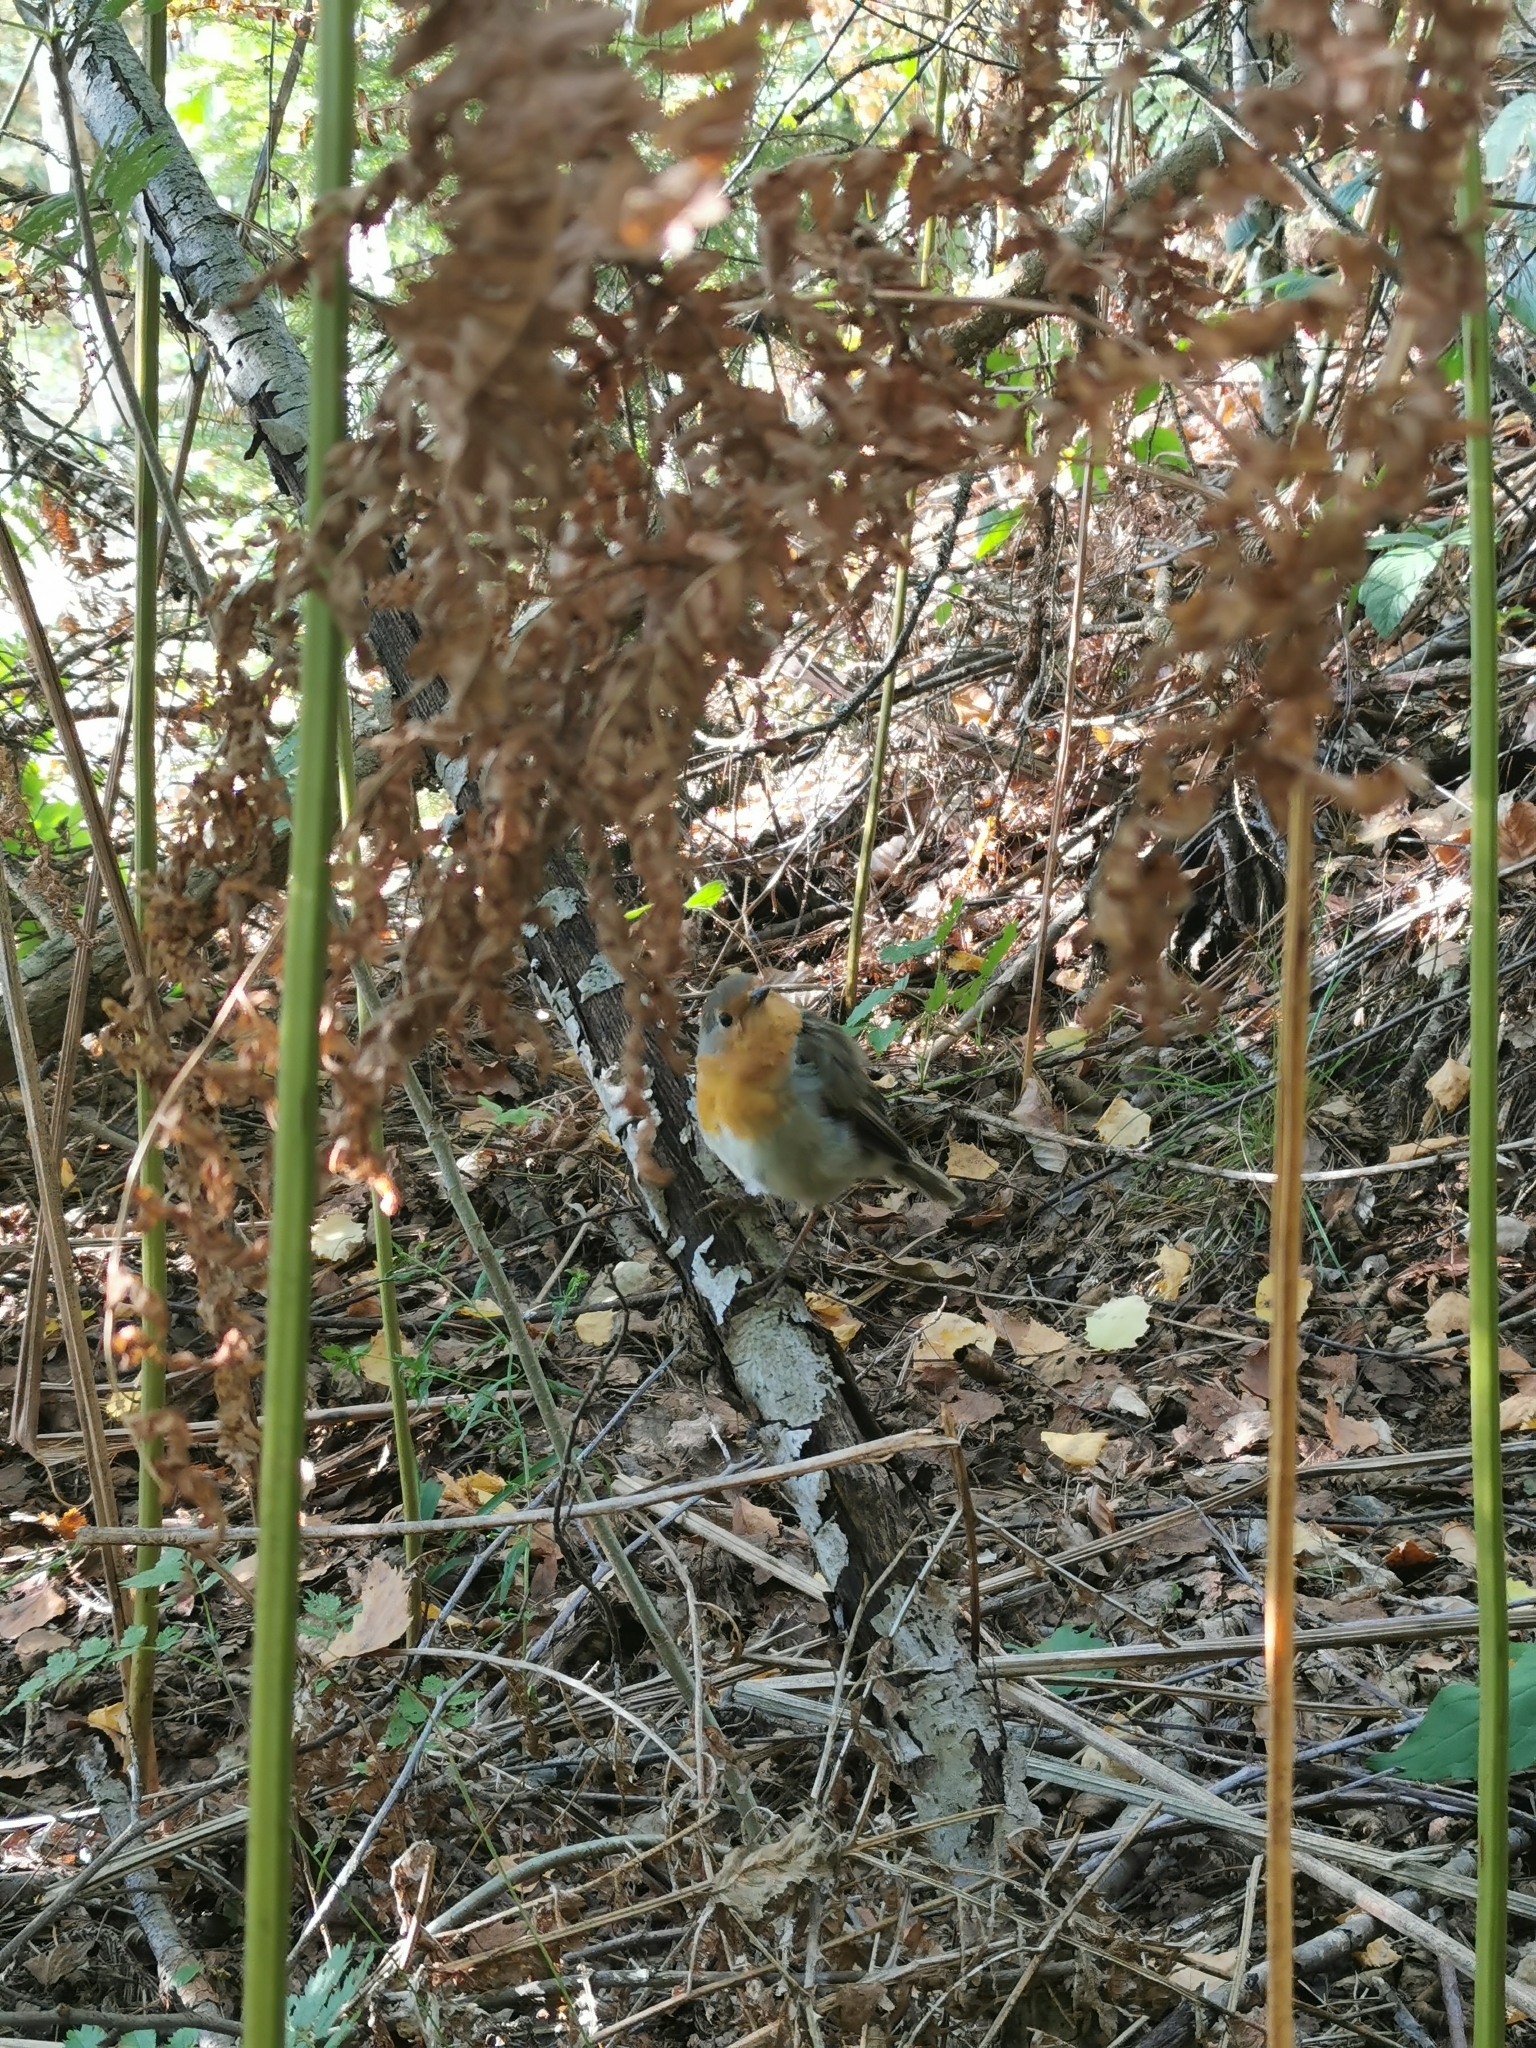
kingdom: Animalia
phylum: Chordata
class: Aves
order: Passeriformes
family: Muscicapidae
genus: Erithacus
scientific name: Erithacus rubecula
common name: European robin
